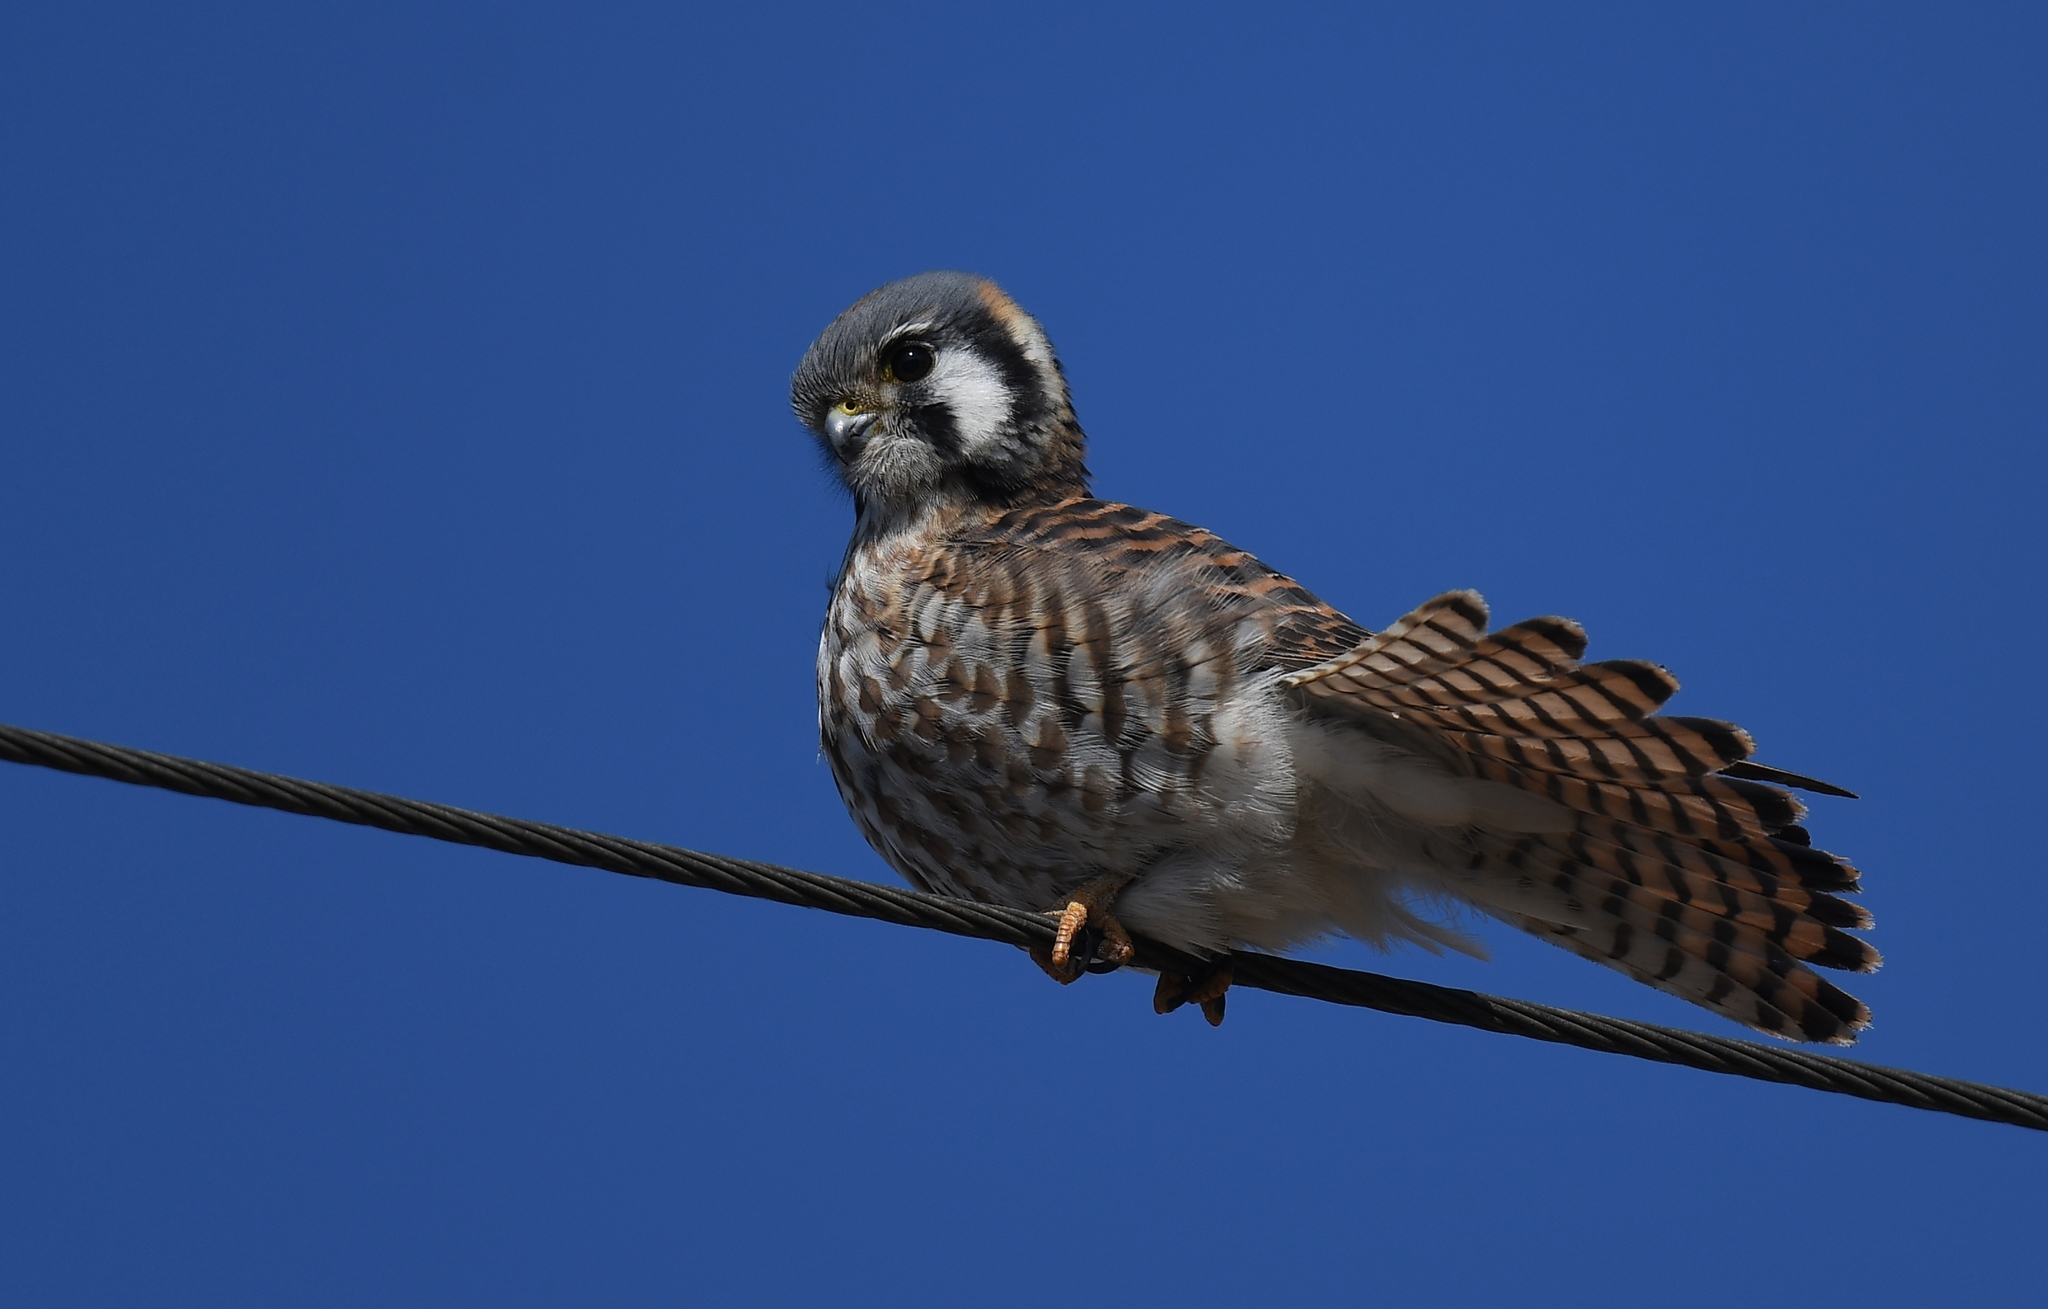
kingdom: Animalia
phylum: Chordata
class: Aves
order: Falconiformes
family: Falconidae
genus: Falco
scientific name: Falco sparverius
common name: American kestrel
